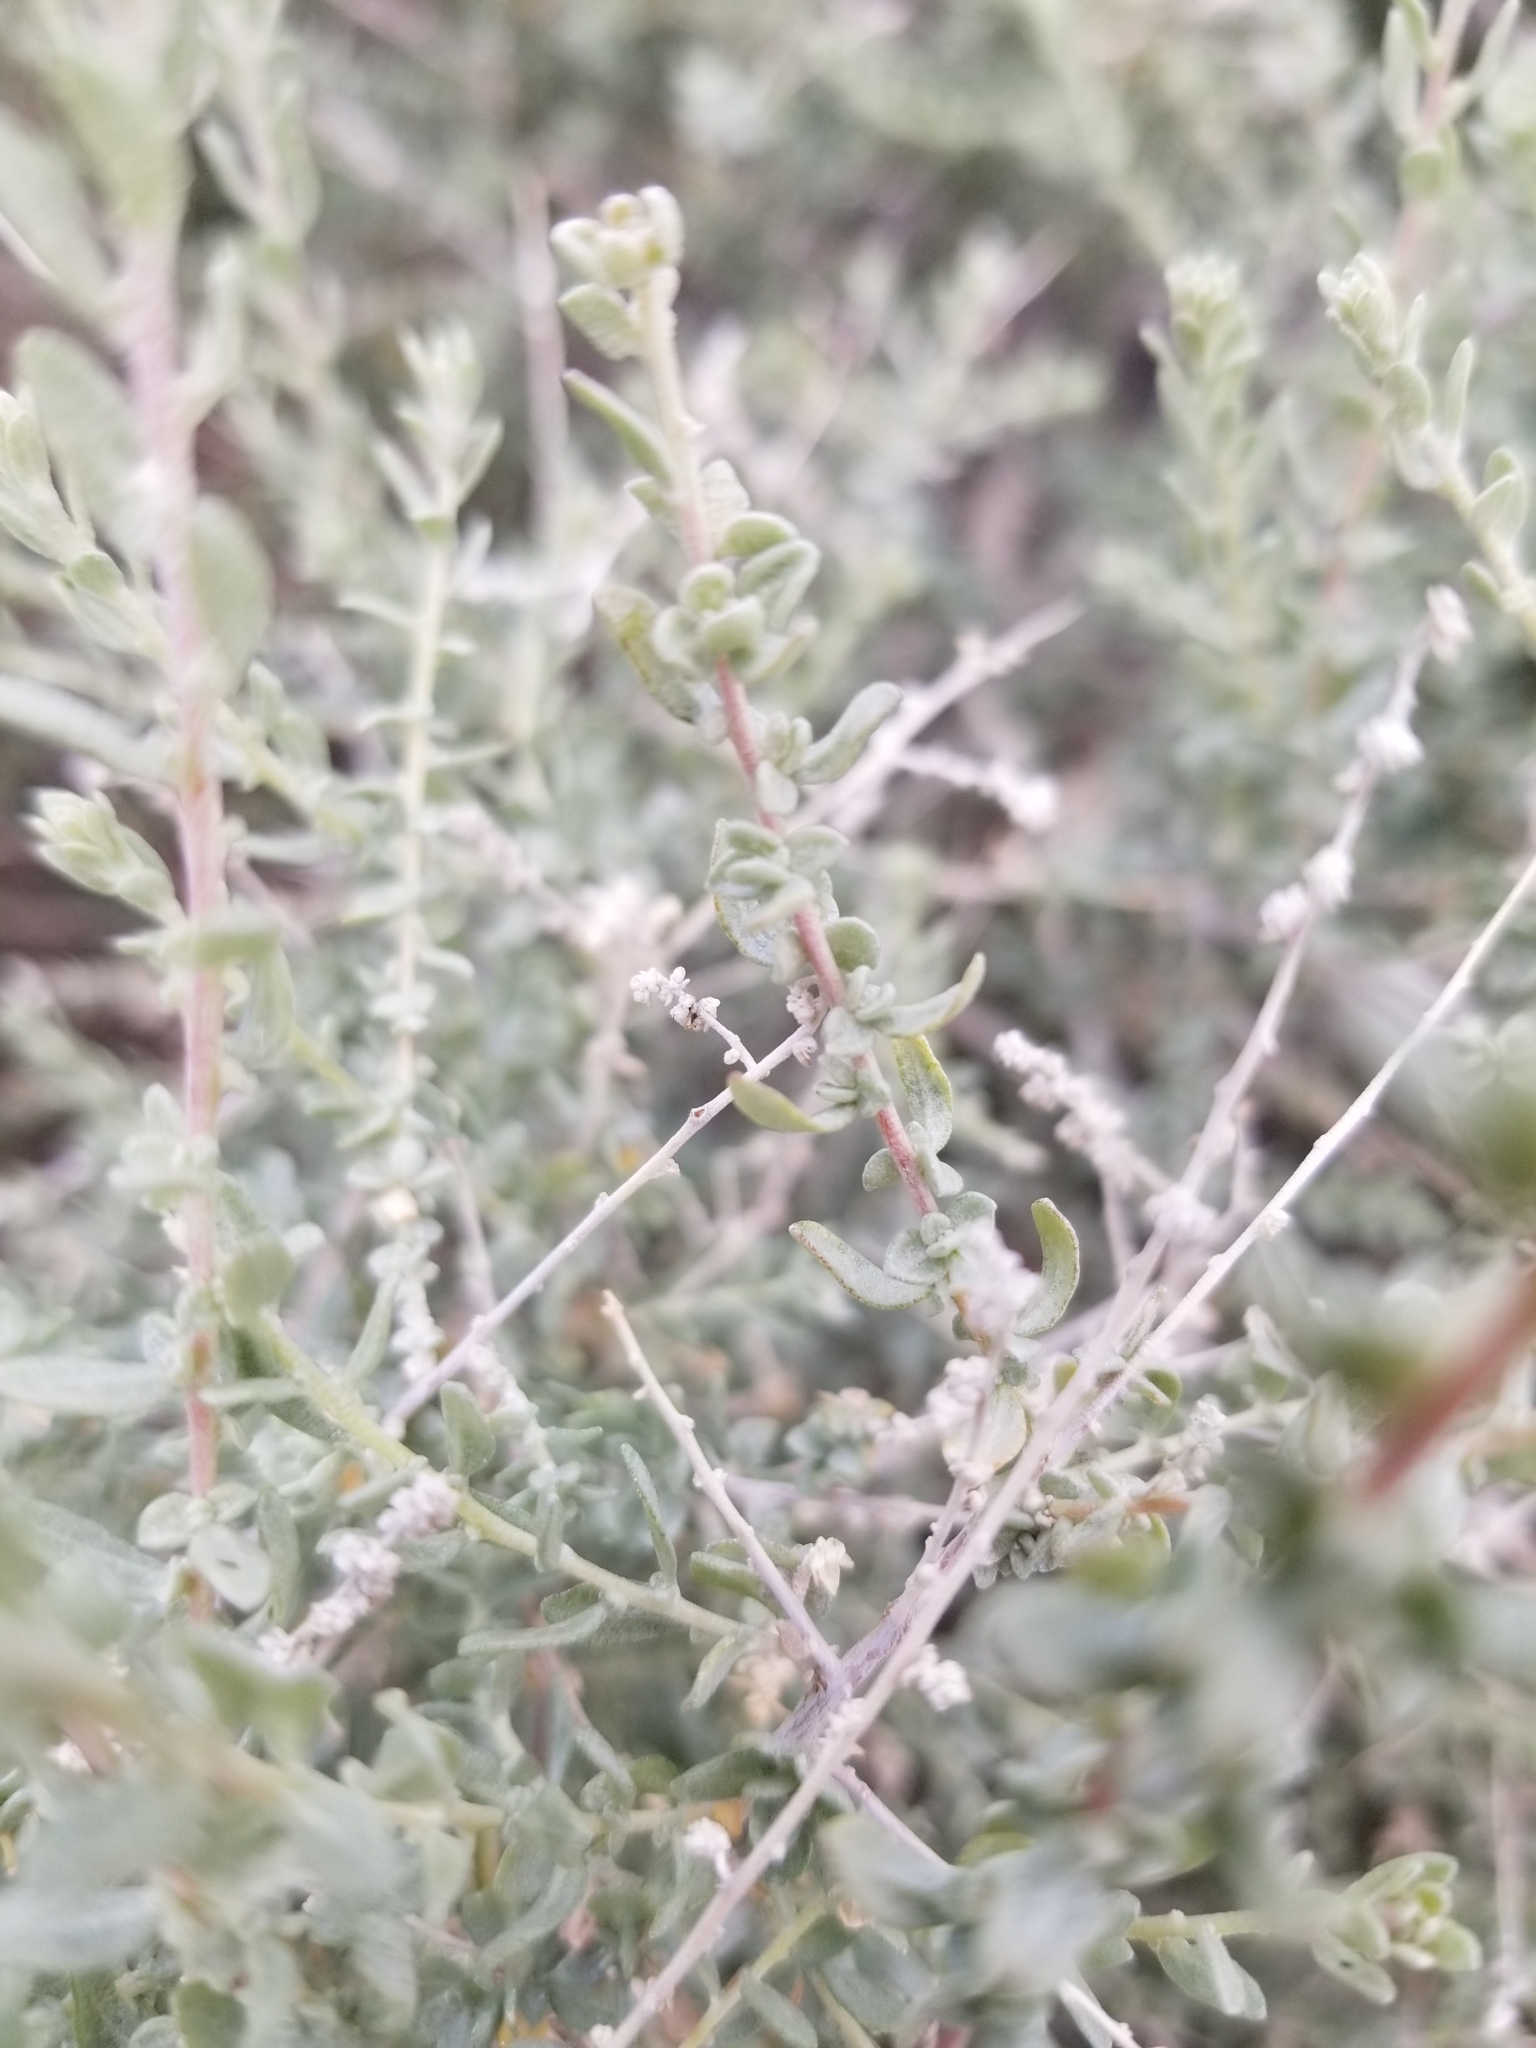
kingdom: Plantae
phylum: Tracheophyta
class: Magnoliopsida
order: Caryophyllales
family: Amaranthaceae
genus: Atriplex
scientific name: Atriplex polycarpa
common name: Desert saltbush
